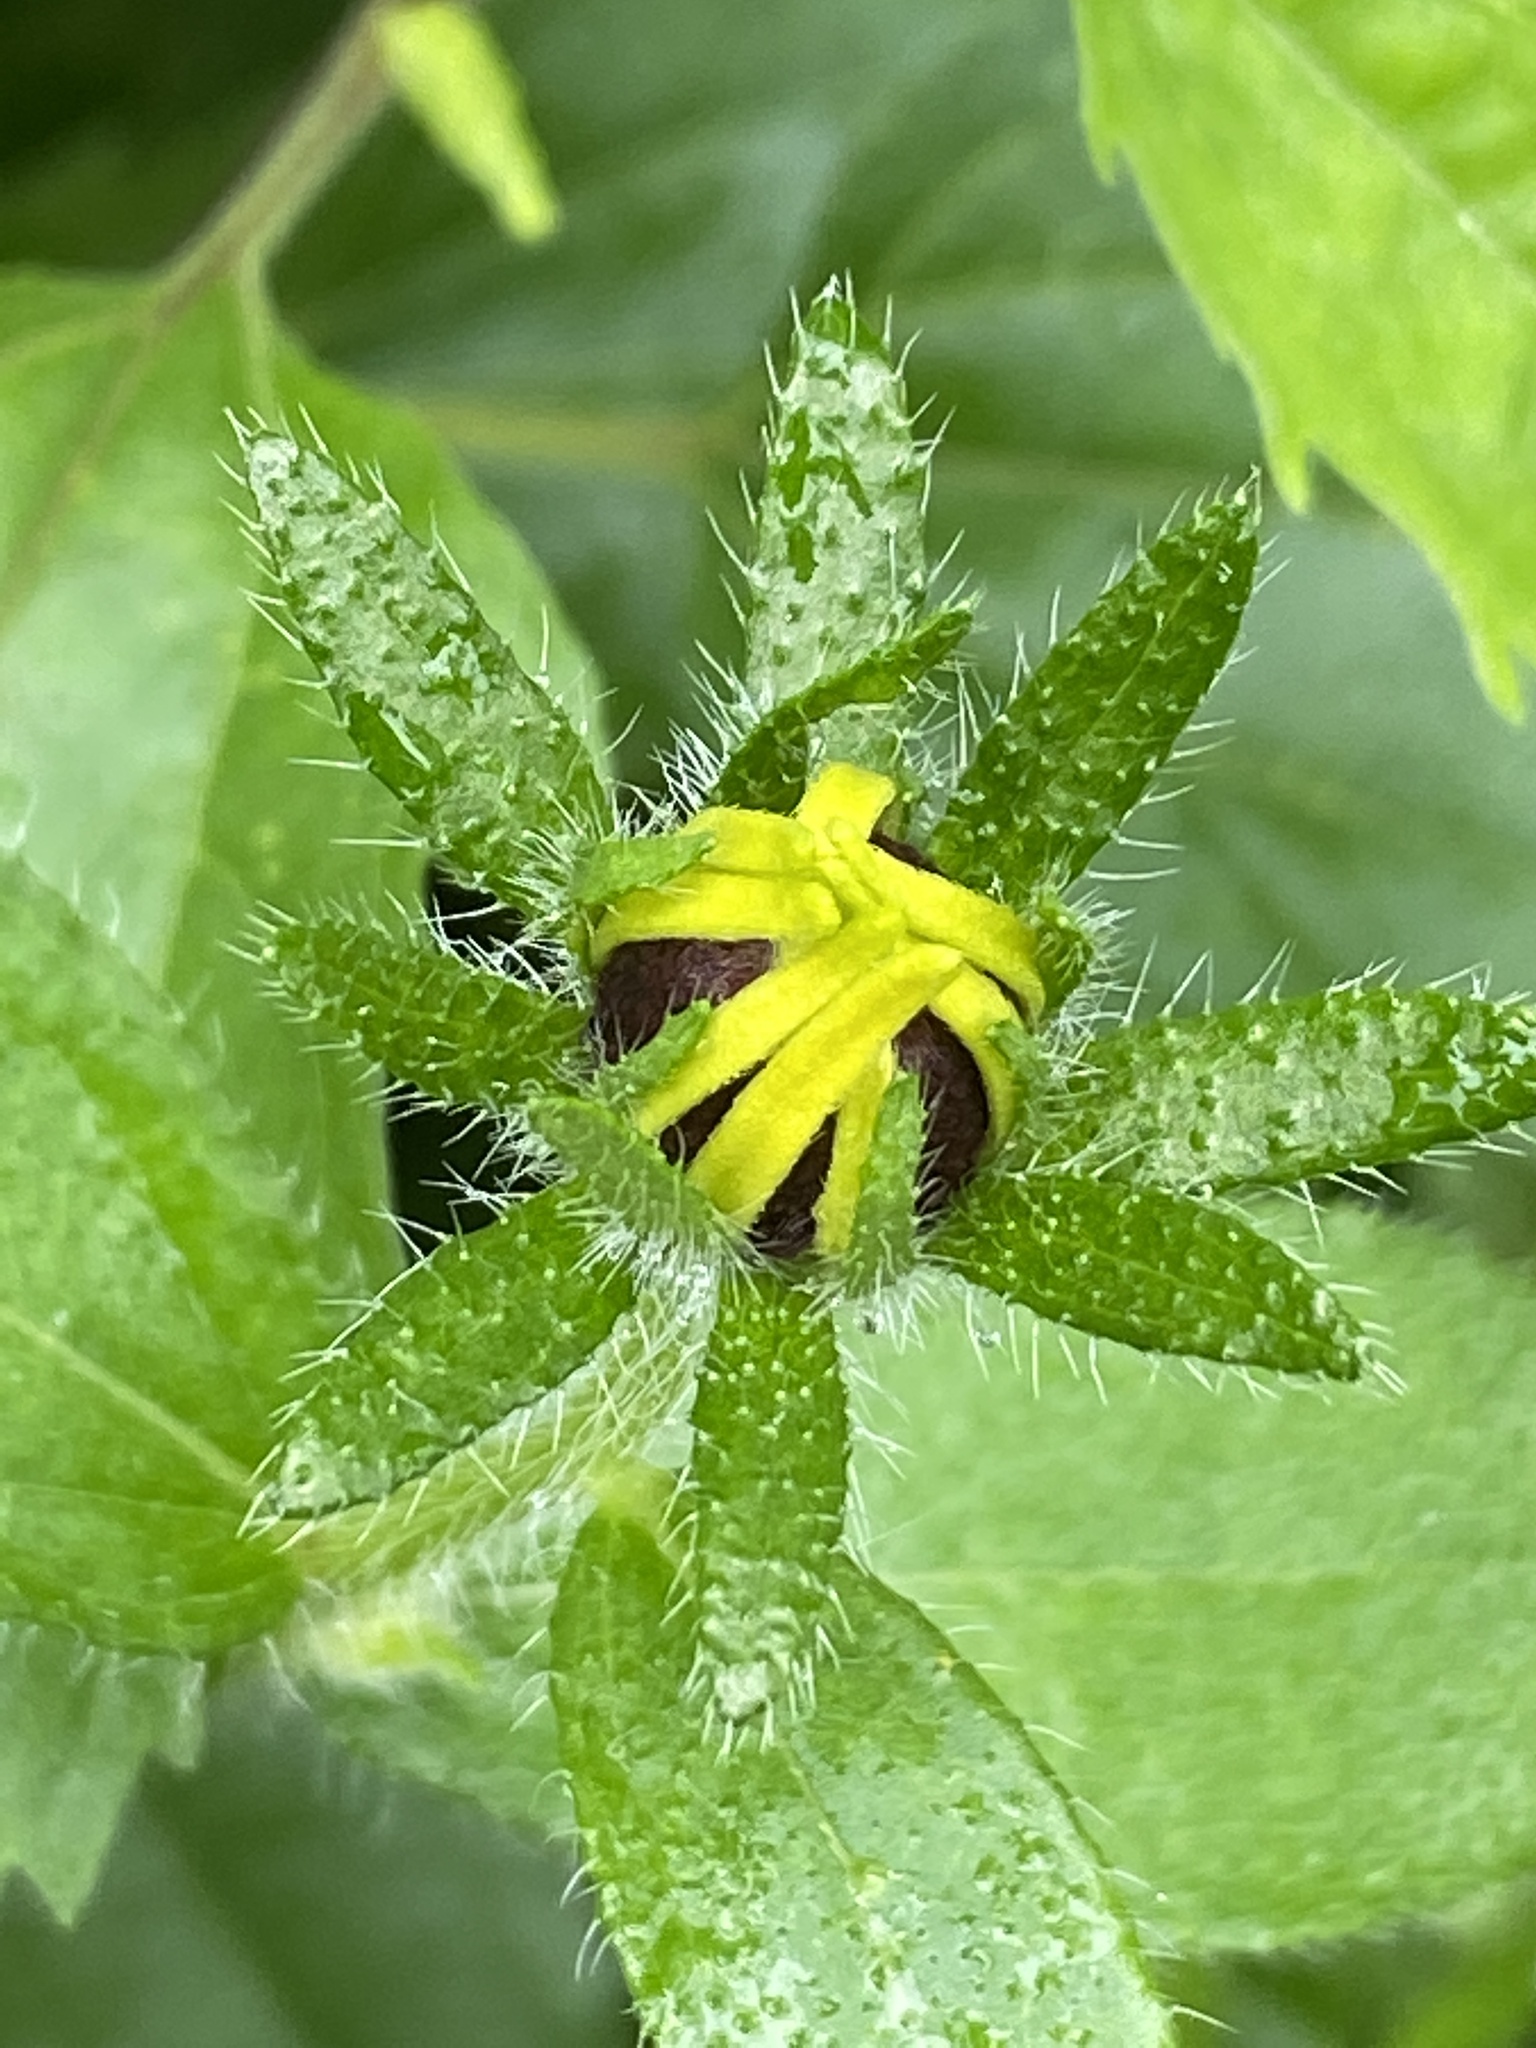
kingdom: Plantae
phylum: Tracheophyta
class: Magnoliopsida
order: Asterales
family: Asteraceae
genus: Rudbeckia
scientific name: Rudbeckia hirta
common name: Black-eyed-susan
